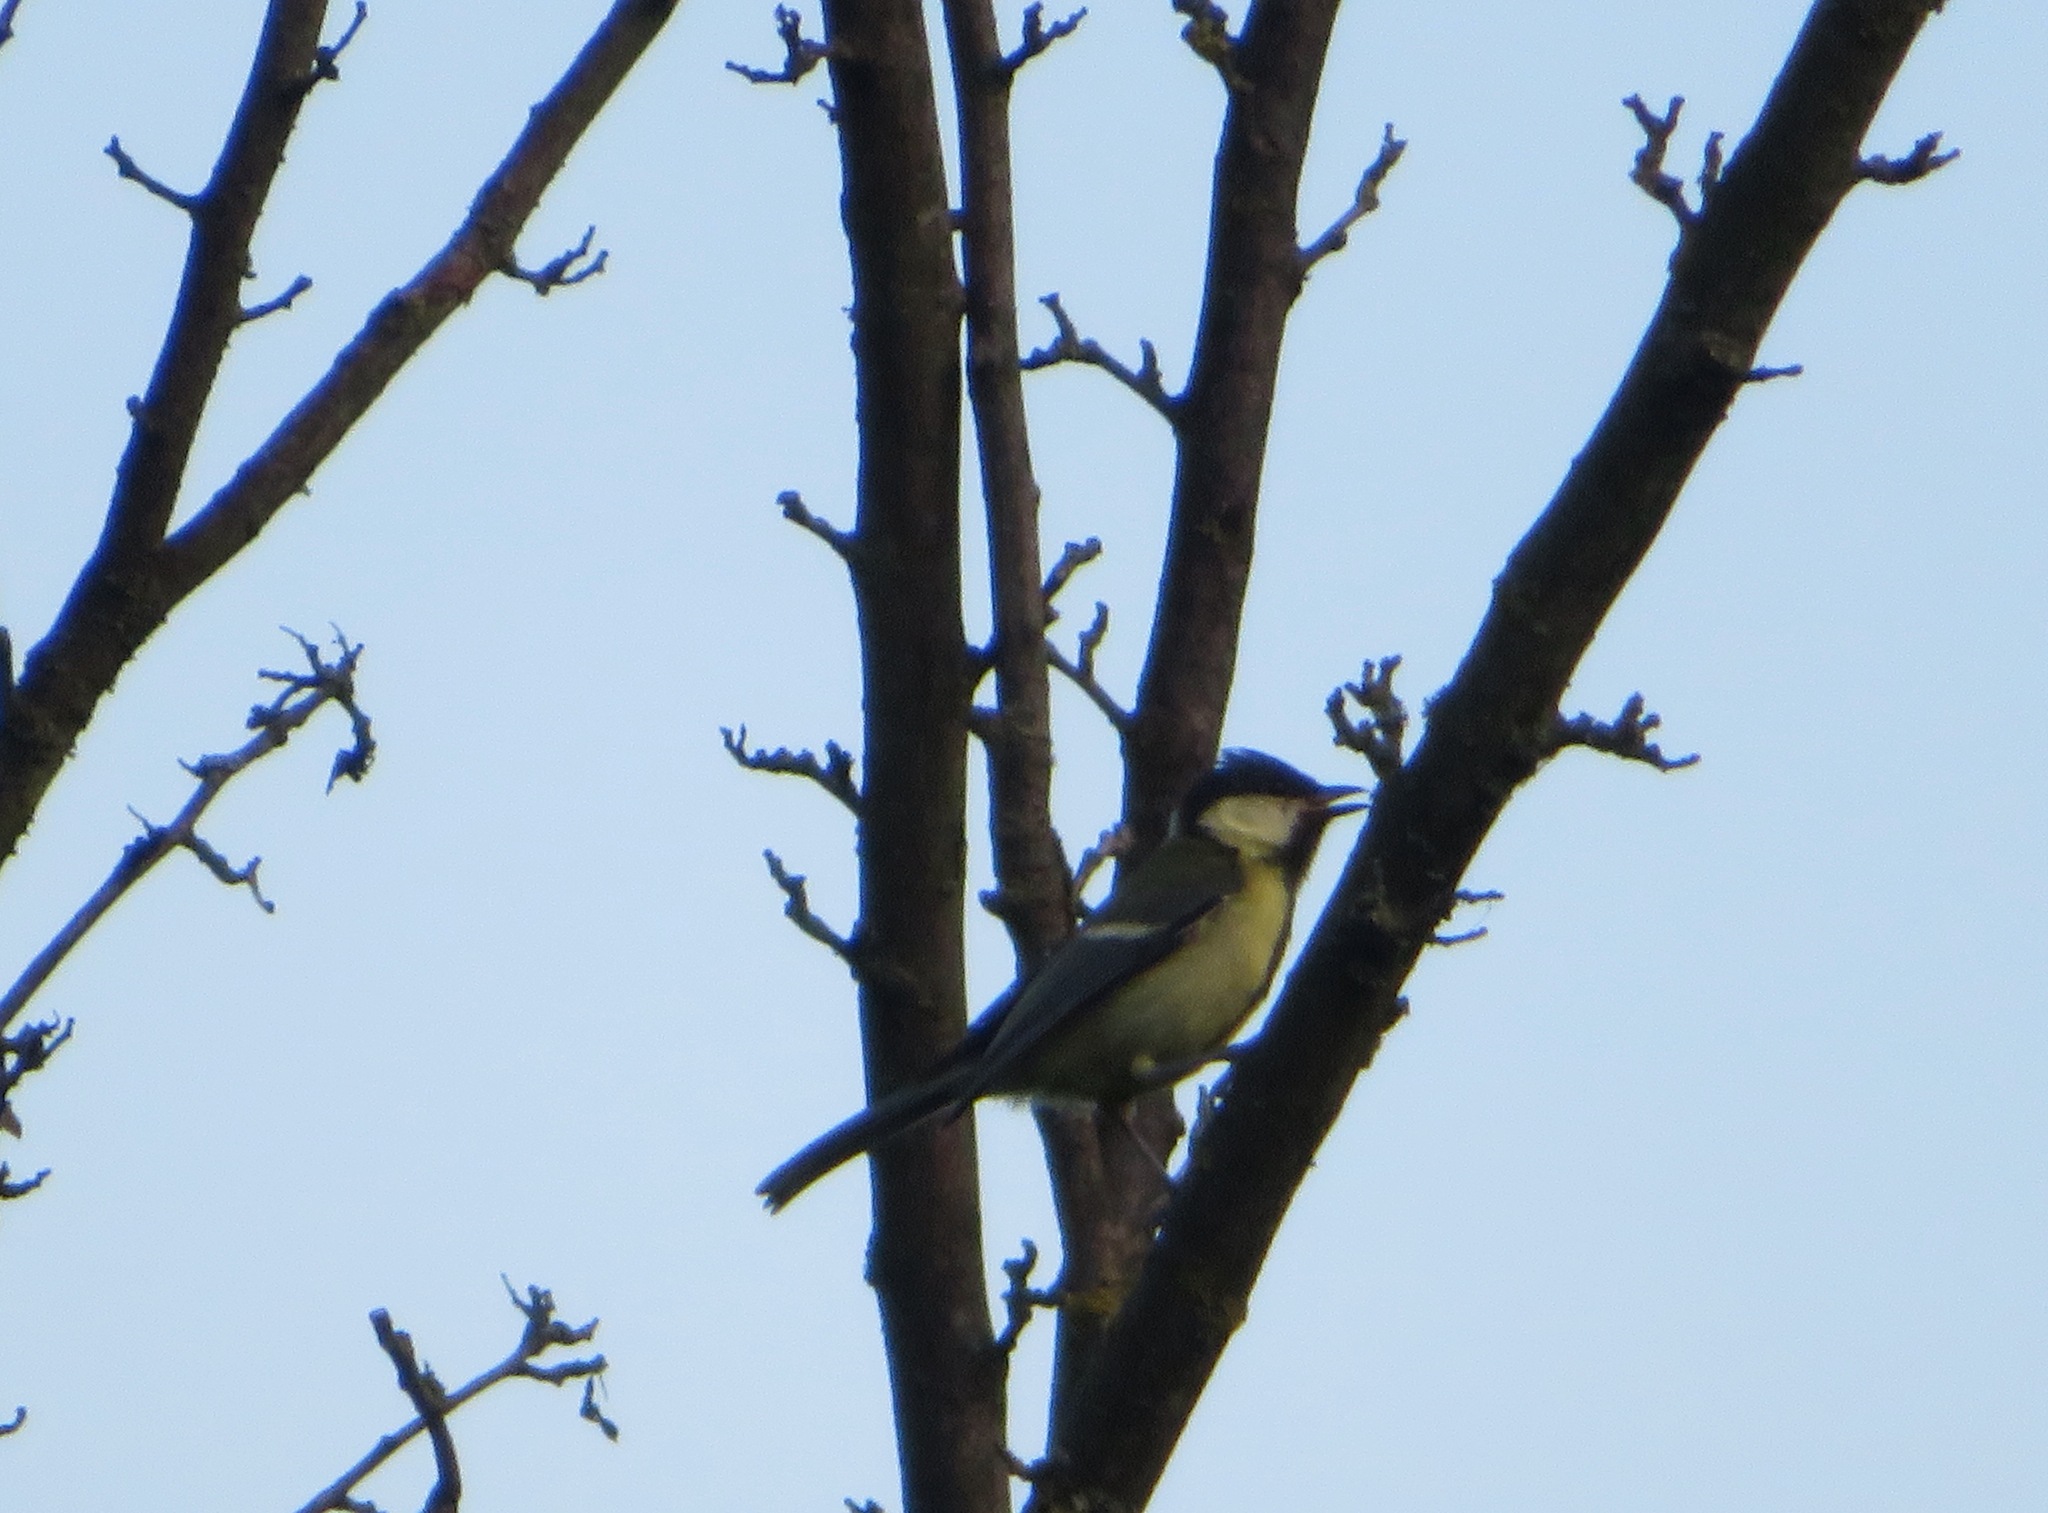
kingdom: Animalia
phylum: Chordata
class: Aves
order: Passeriformes
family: Paridae
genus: Parus
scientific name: Parus major
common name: Great tit
